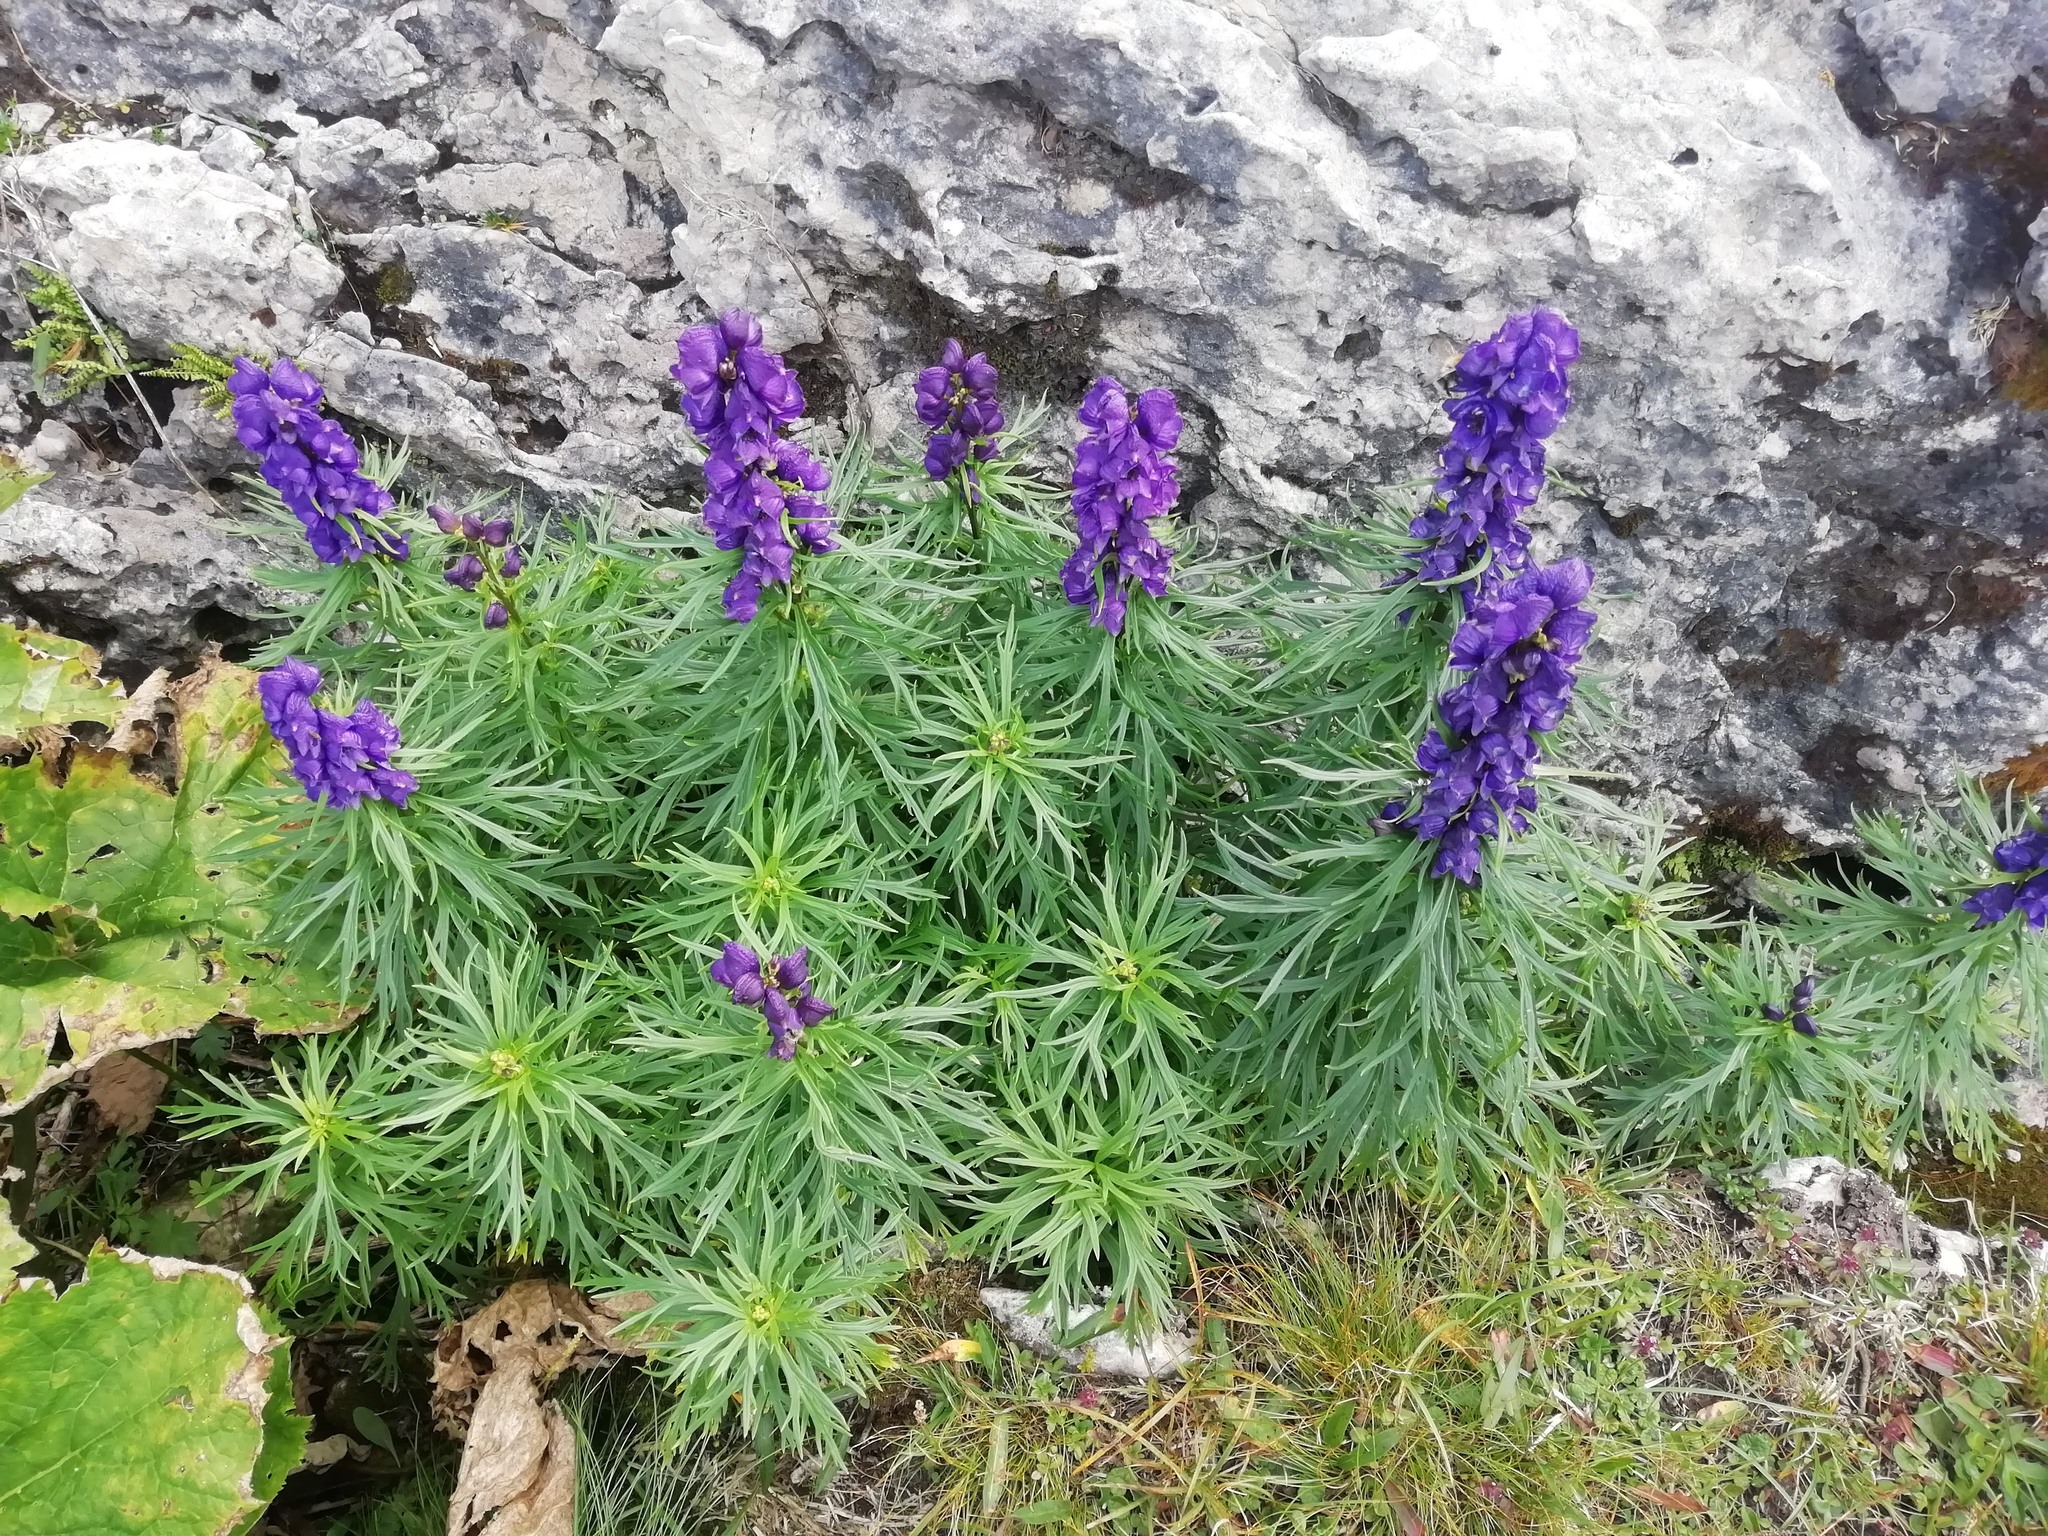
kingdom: Plantae
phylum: Tracheophyta
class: Magnoliopsida
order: Ranunculales
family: Ranunculaceae
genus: Aconitum
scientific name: Aconitum tauricum
